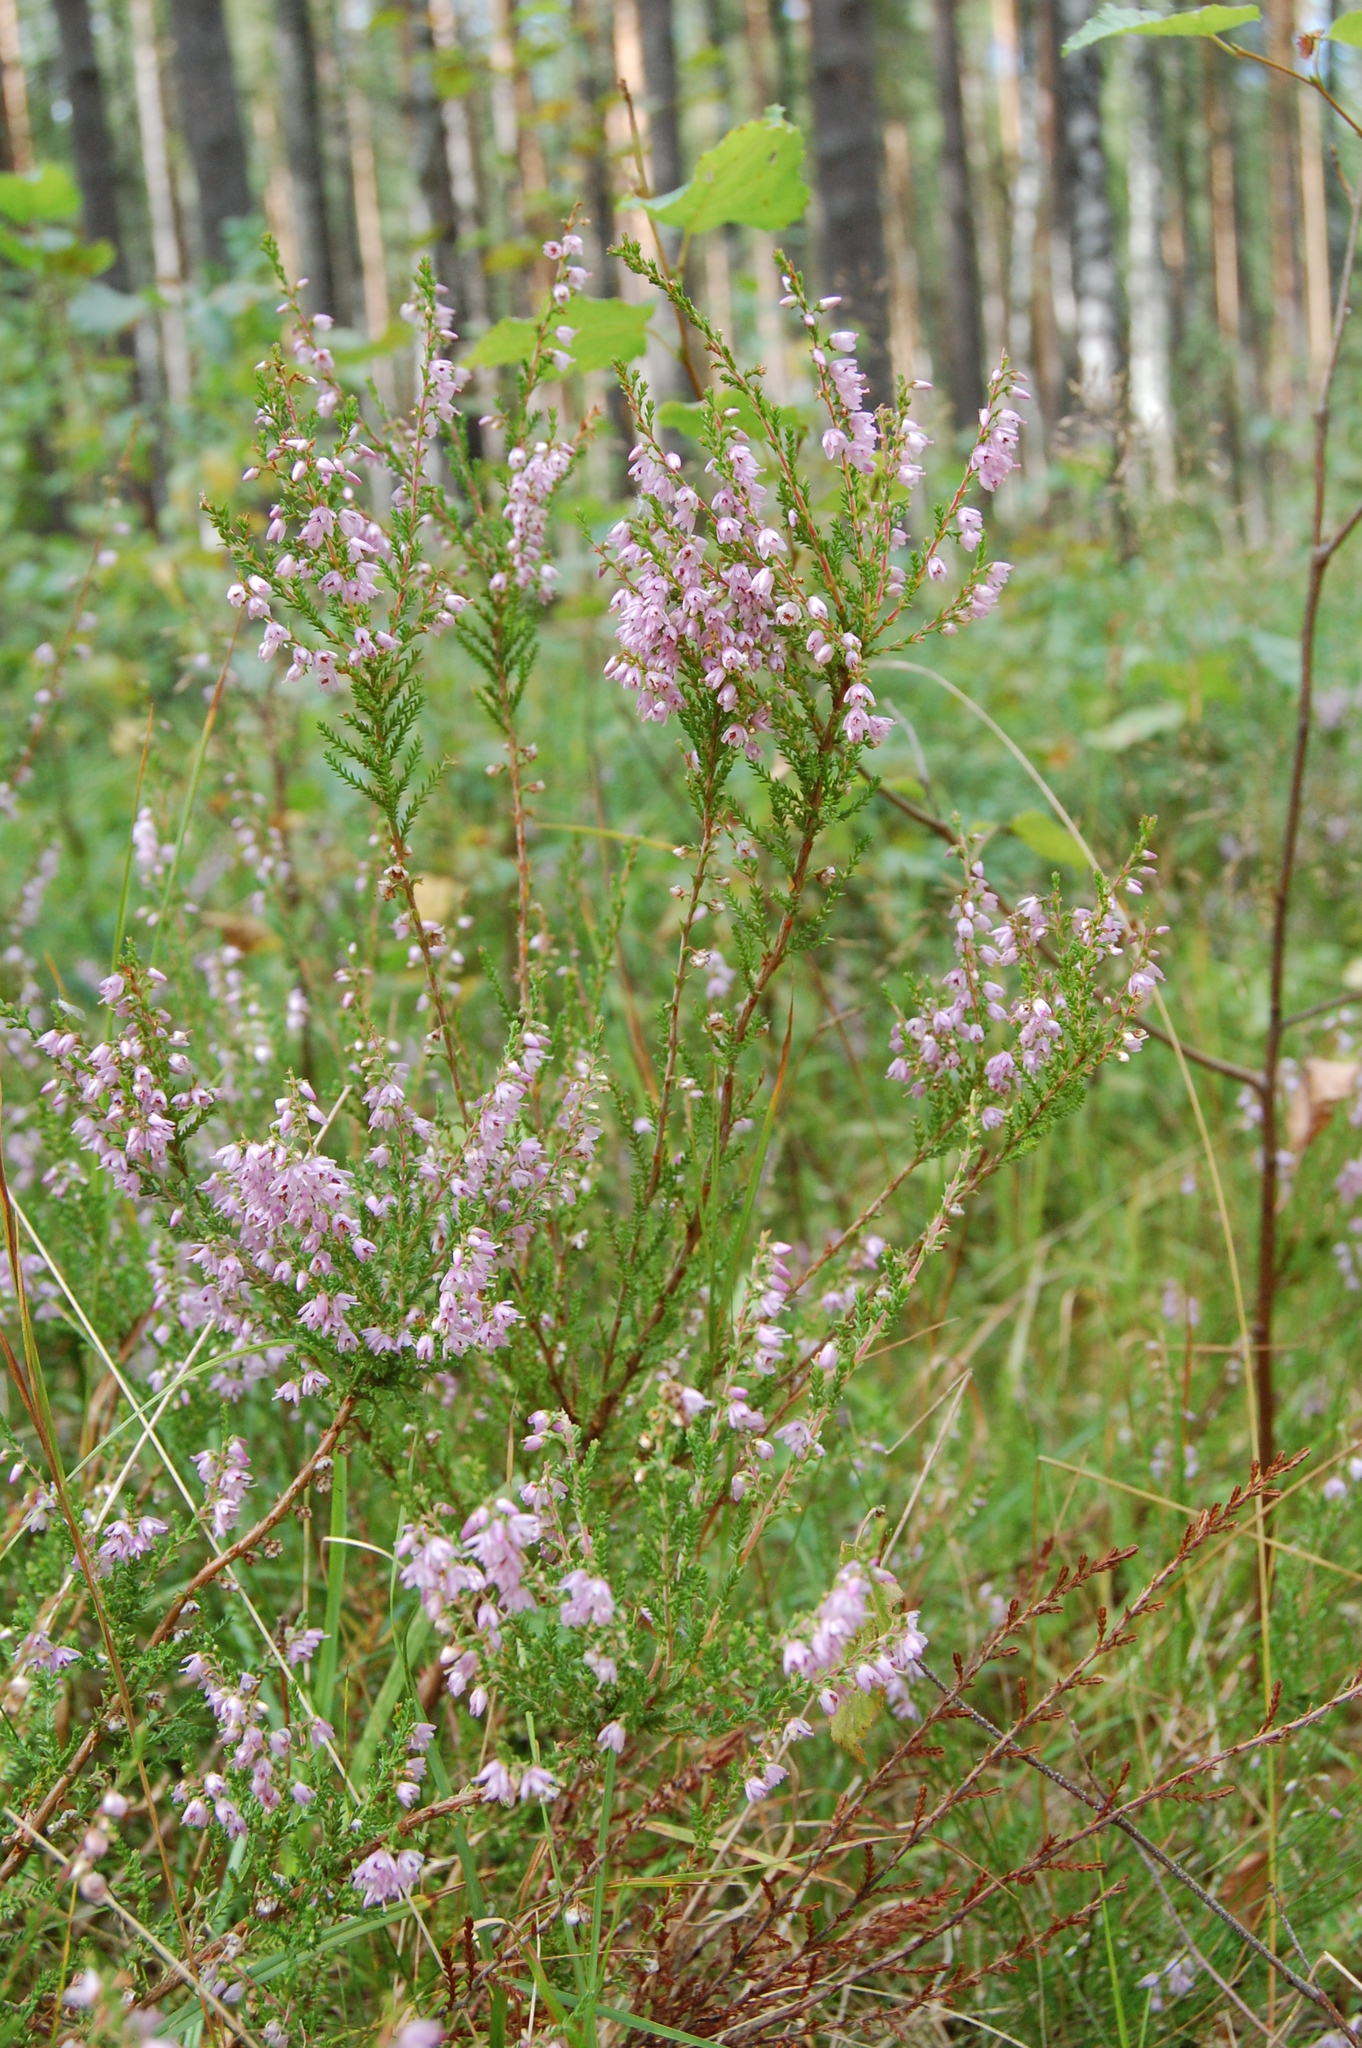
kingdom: Plantae
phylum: Tracheophyta
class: Magnoliopsida
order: Ericales
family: Ericaceae
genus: Calluna
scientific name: Calluna vulgaris
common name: Heather
